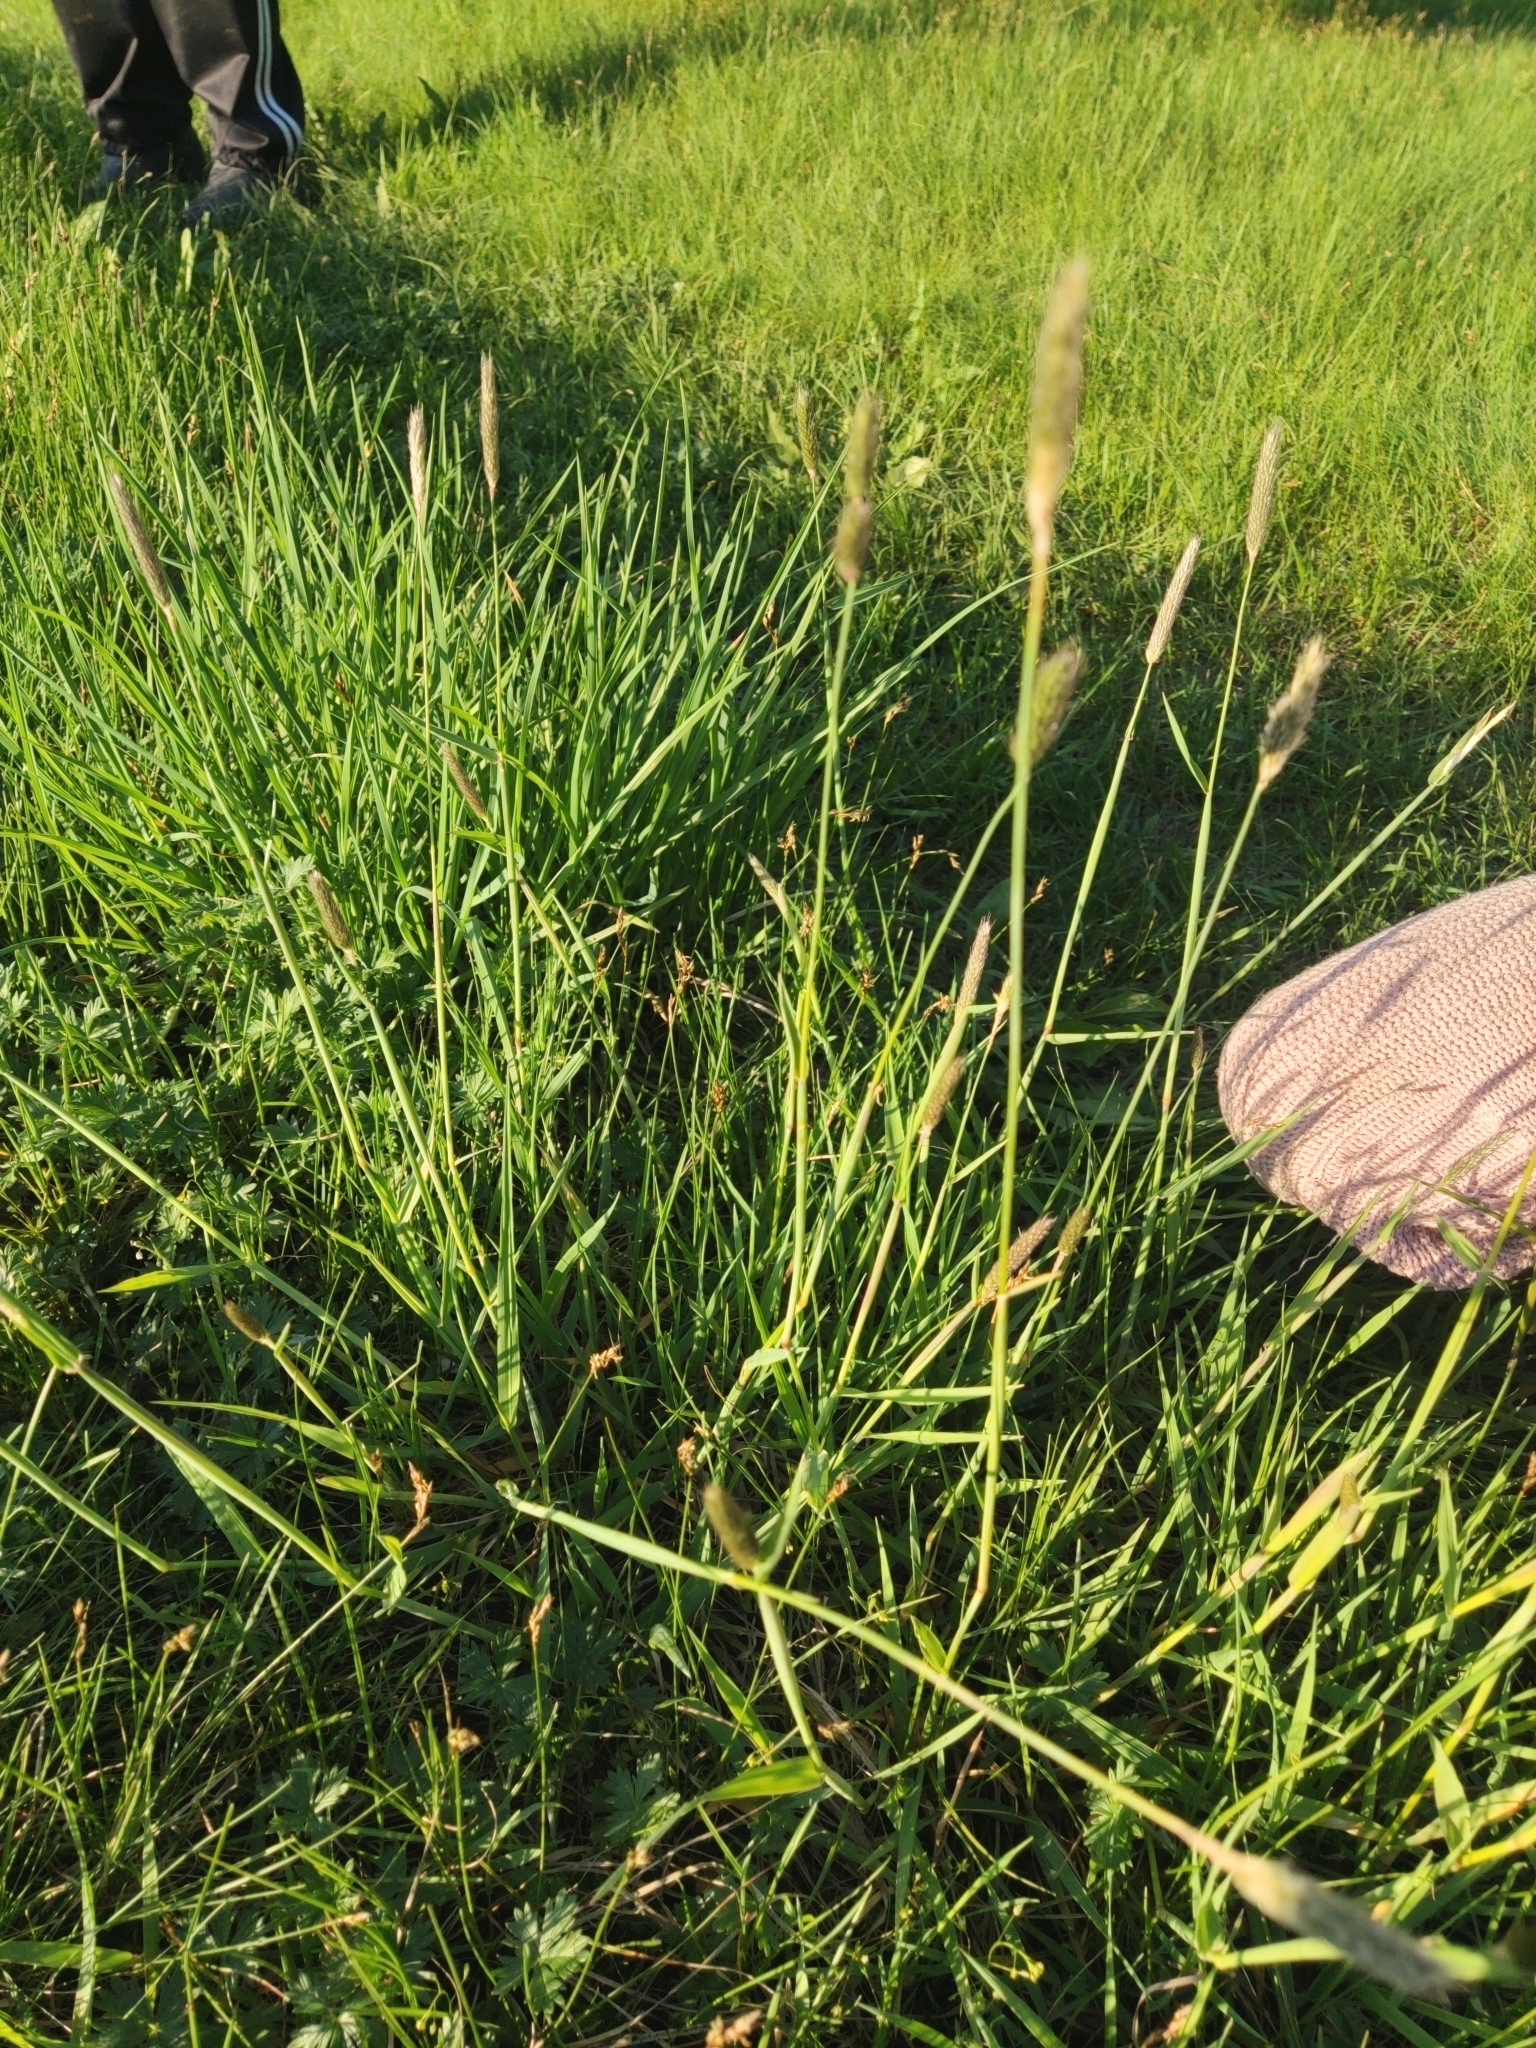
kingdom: Plantae
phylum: Tracheophyta
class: Liliopsida
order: Poales
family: Poaceae
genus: Alopecurus
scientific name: Alopecurus pratensis
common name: Meadow foxtail
